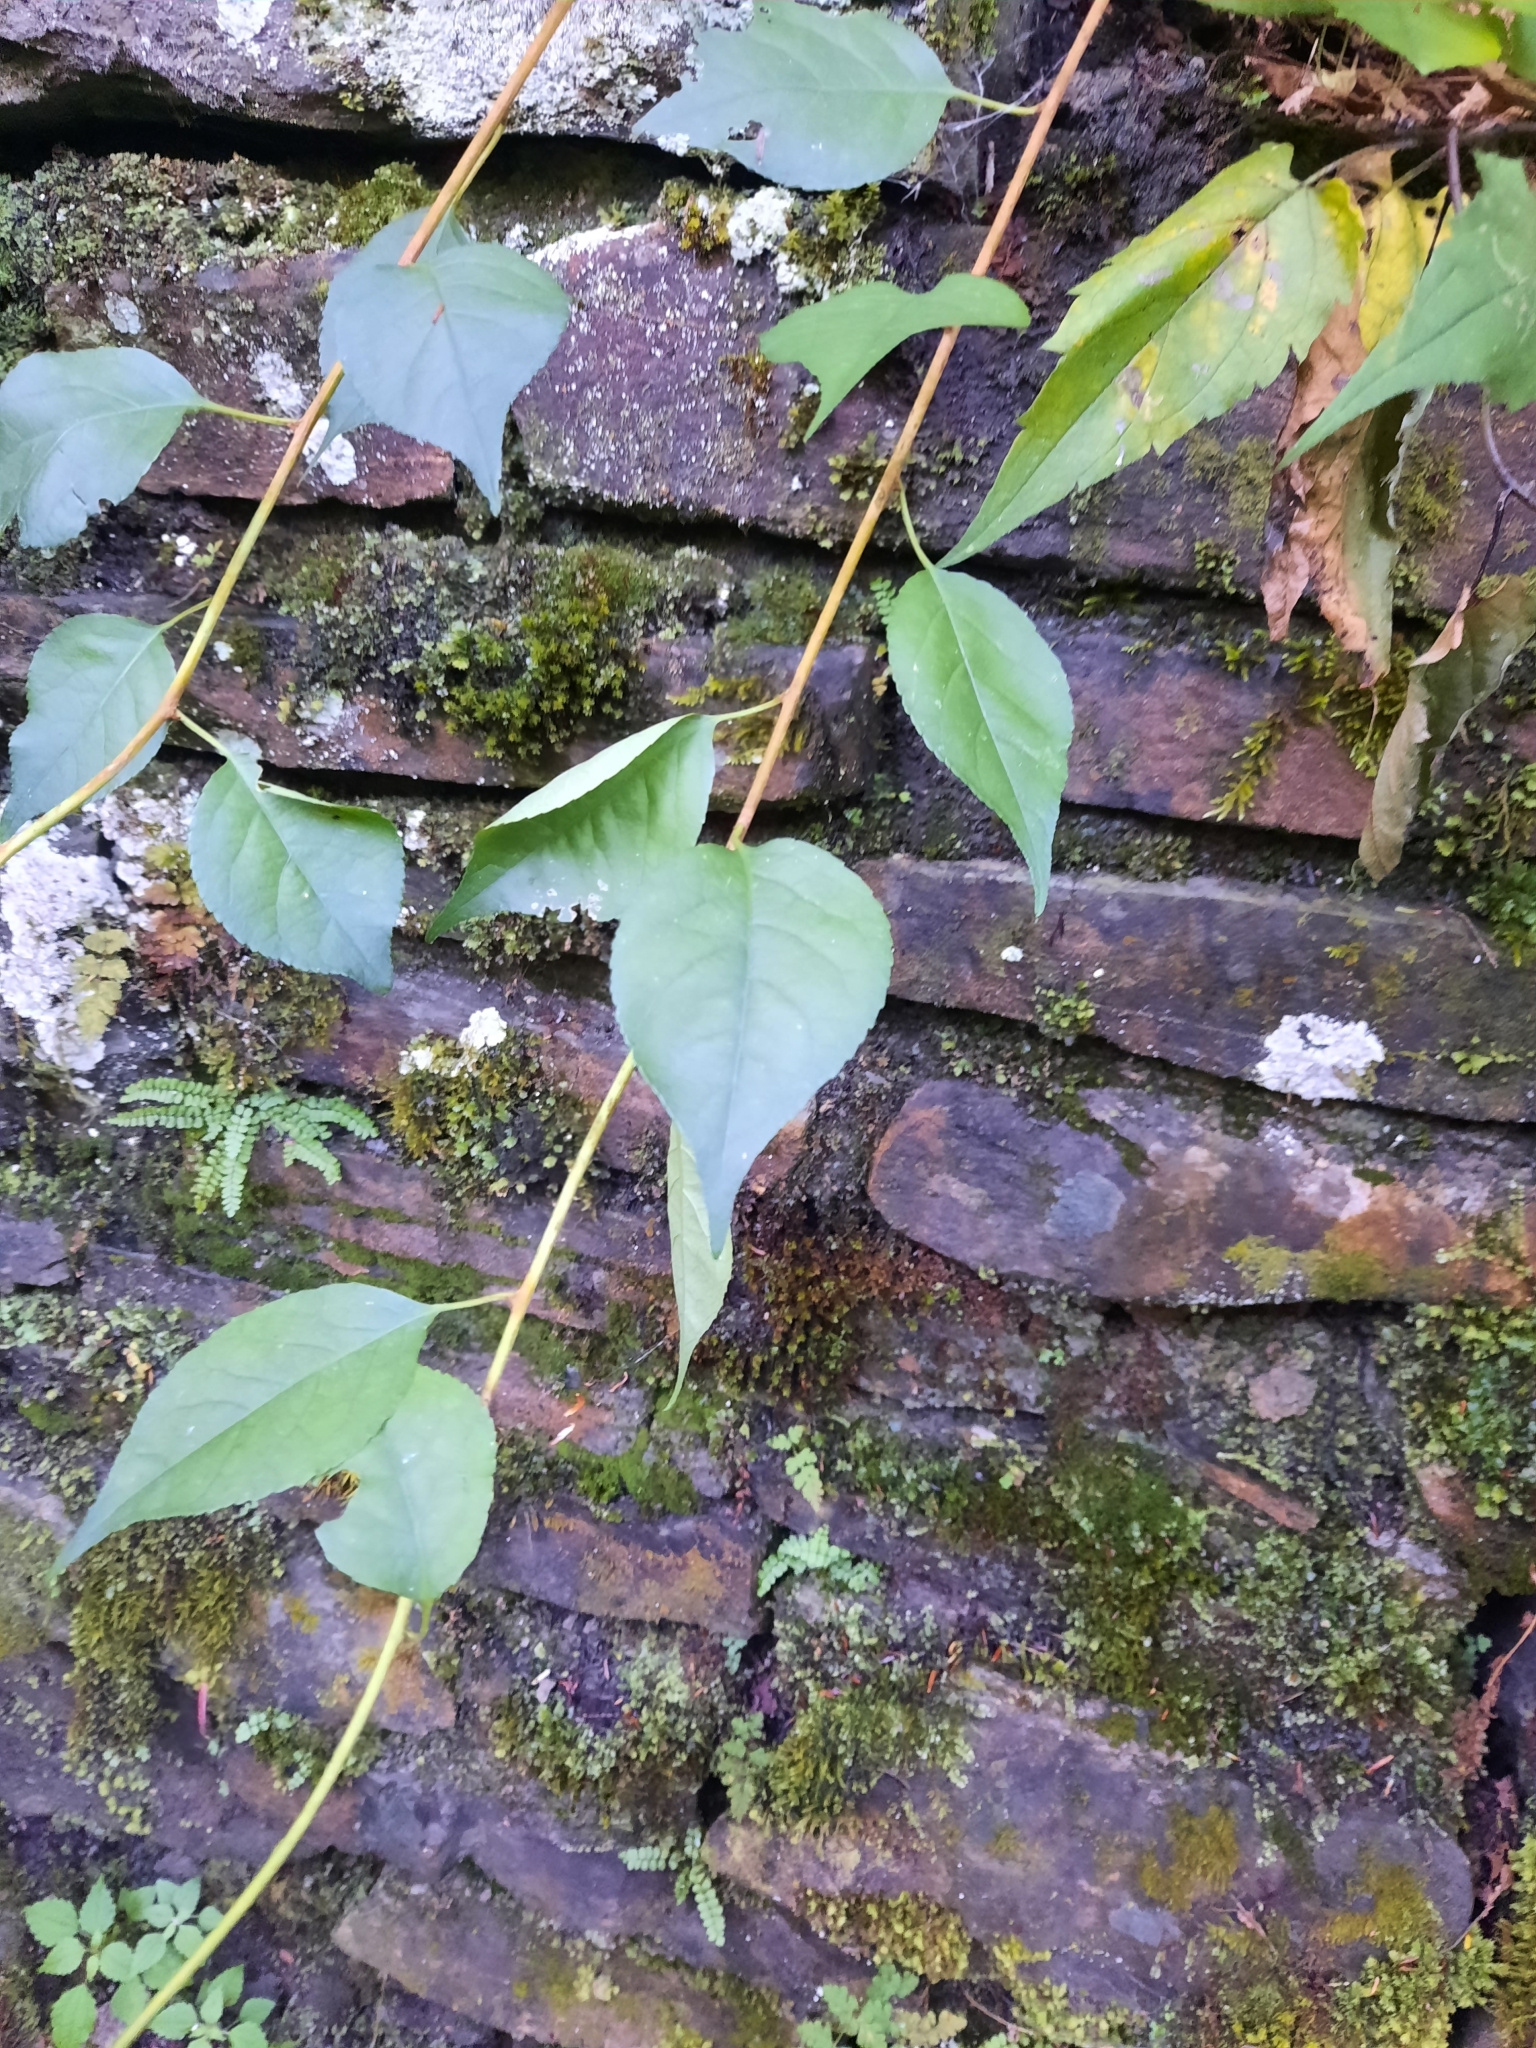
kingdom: Plantae
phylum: Tracheophyta
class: Magnoliopsida
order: Celastrales
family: Celastraceae
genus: Celastrus
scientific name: Celastrus orbiculatus
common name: Oriental bittersweet
